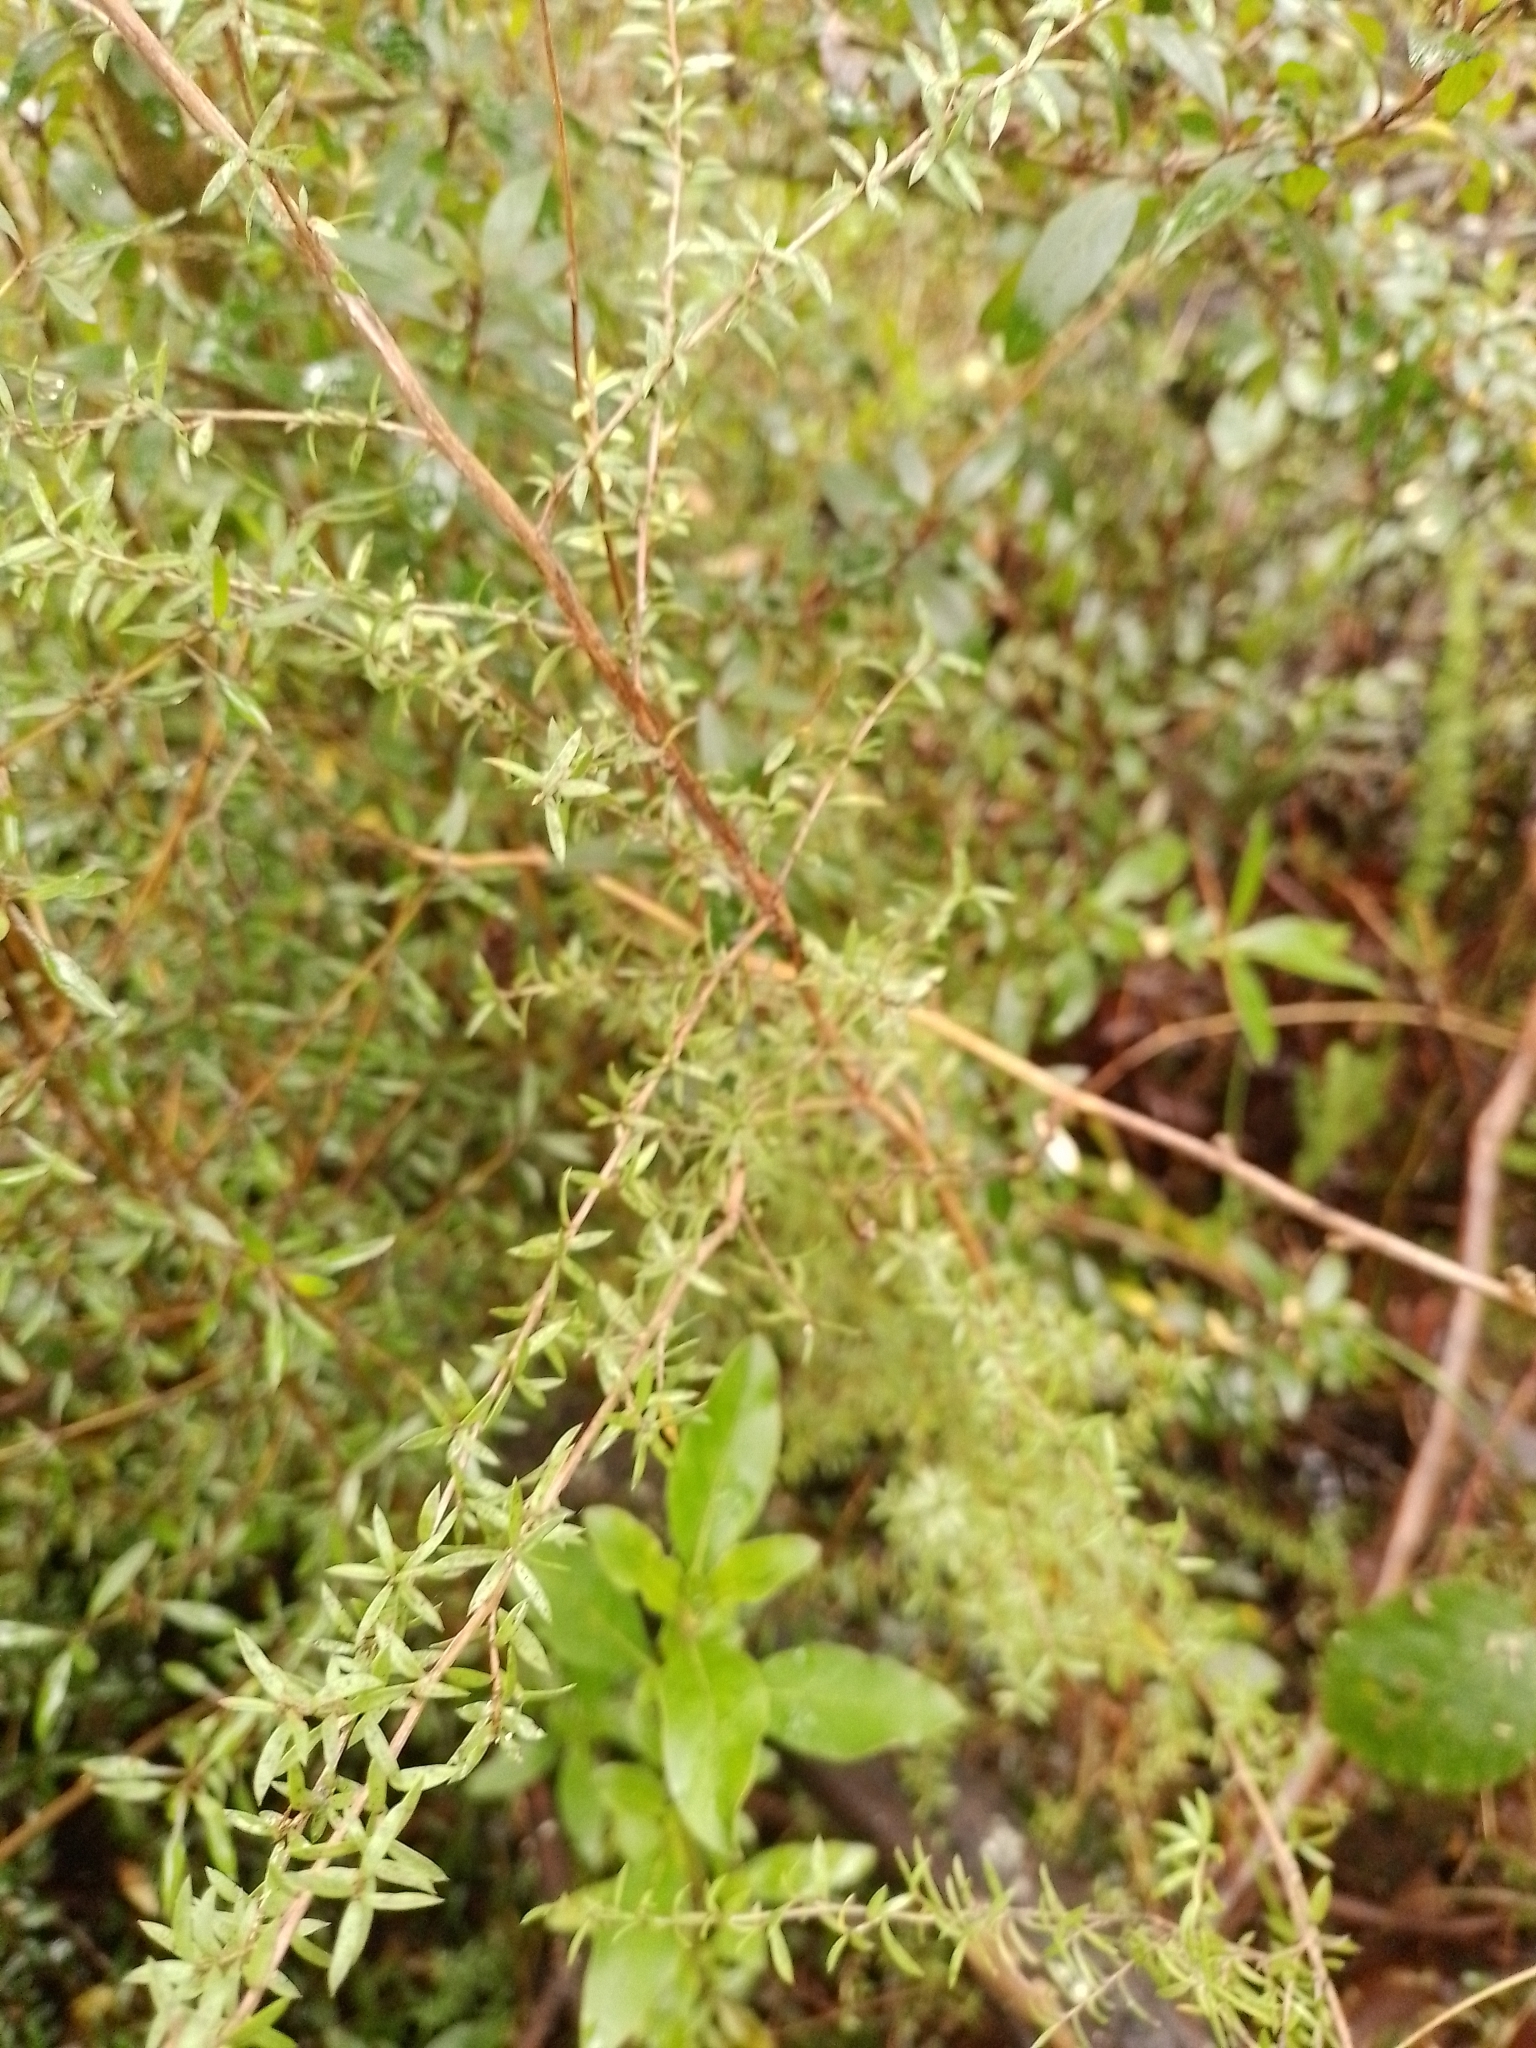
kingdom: Plantae
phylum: Tracheophyta
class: Magnoliopsida
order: Myrtales
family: Myrtaceae
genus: Leptospermum
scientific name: Leptospermum scoparium
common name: Broom tea-tree
